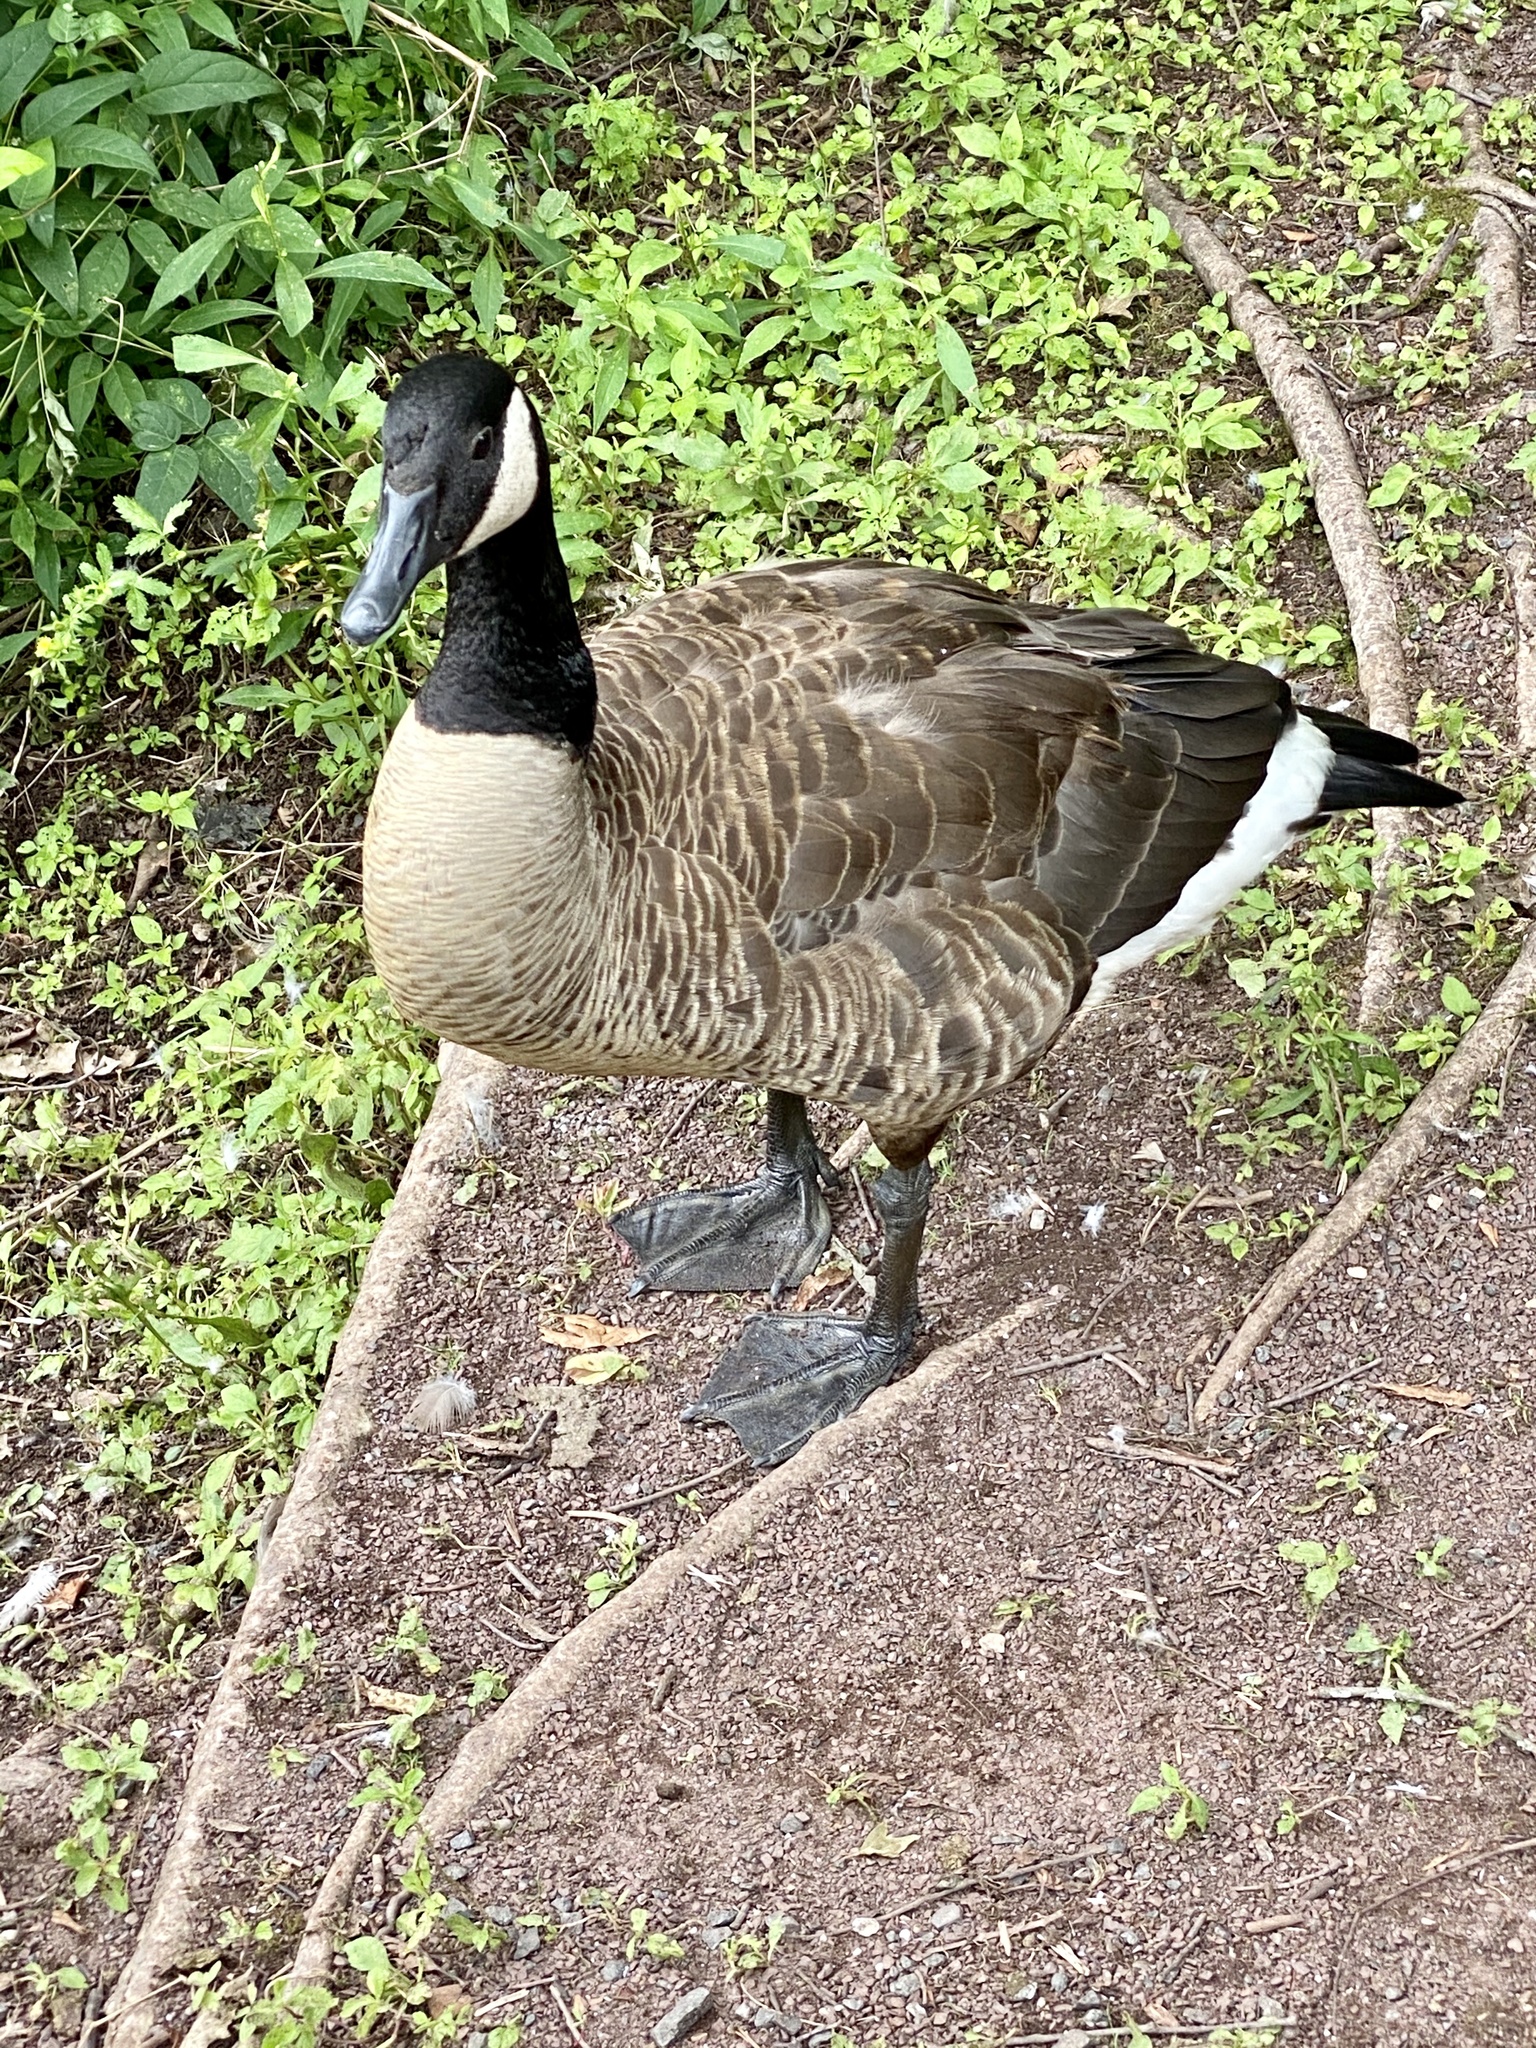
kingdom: Animalia
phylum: Chordata
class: Aves
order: Anseriformes
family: Anatidae
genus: Branta
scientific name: Branta canadensis
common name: Canada goose
